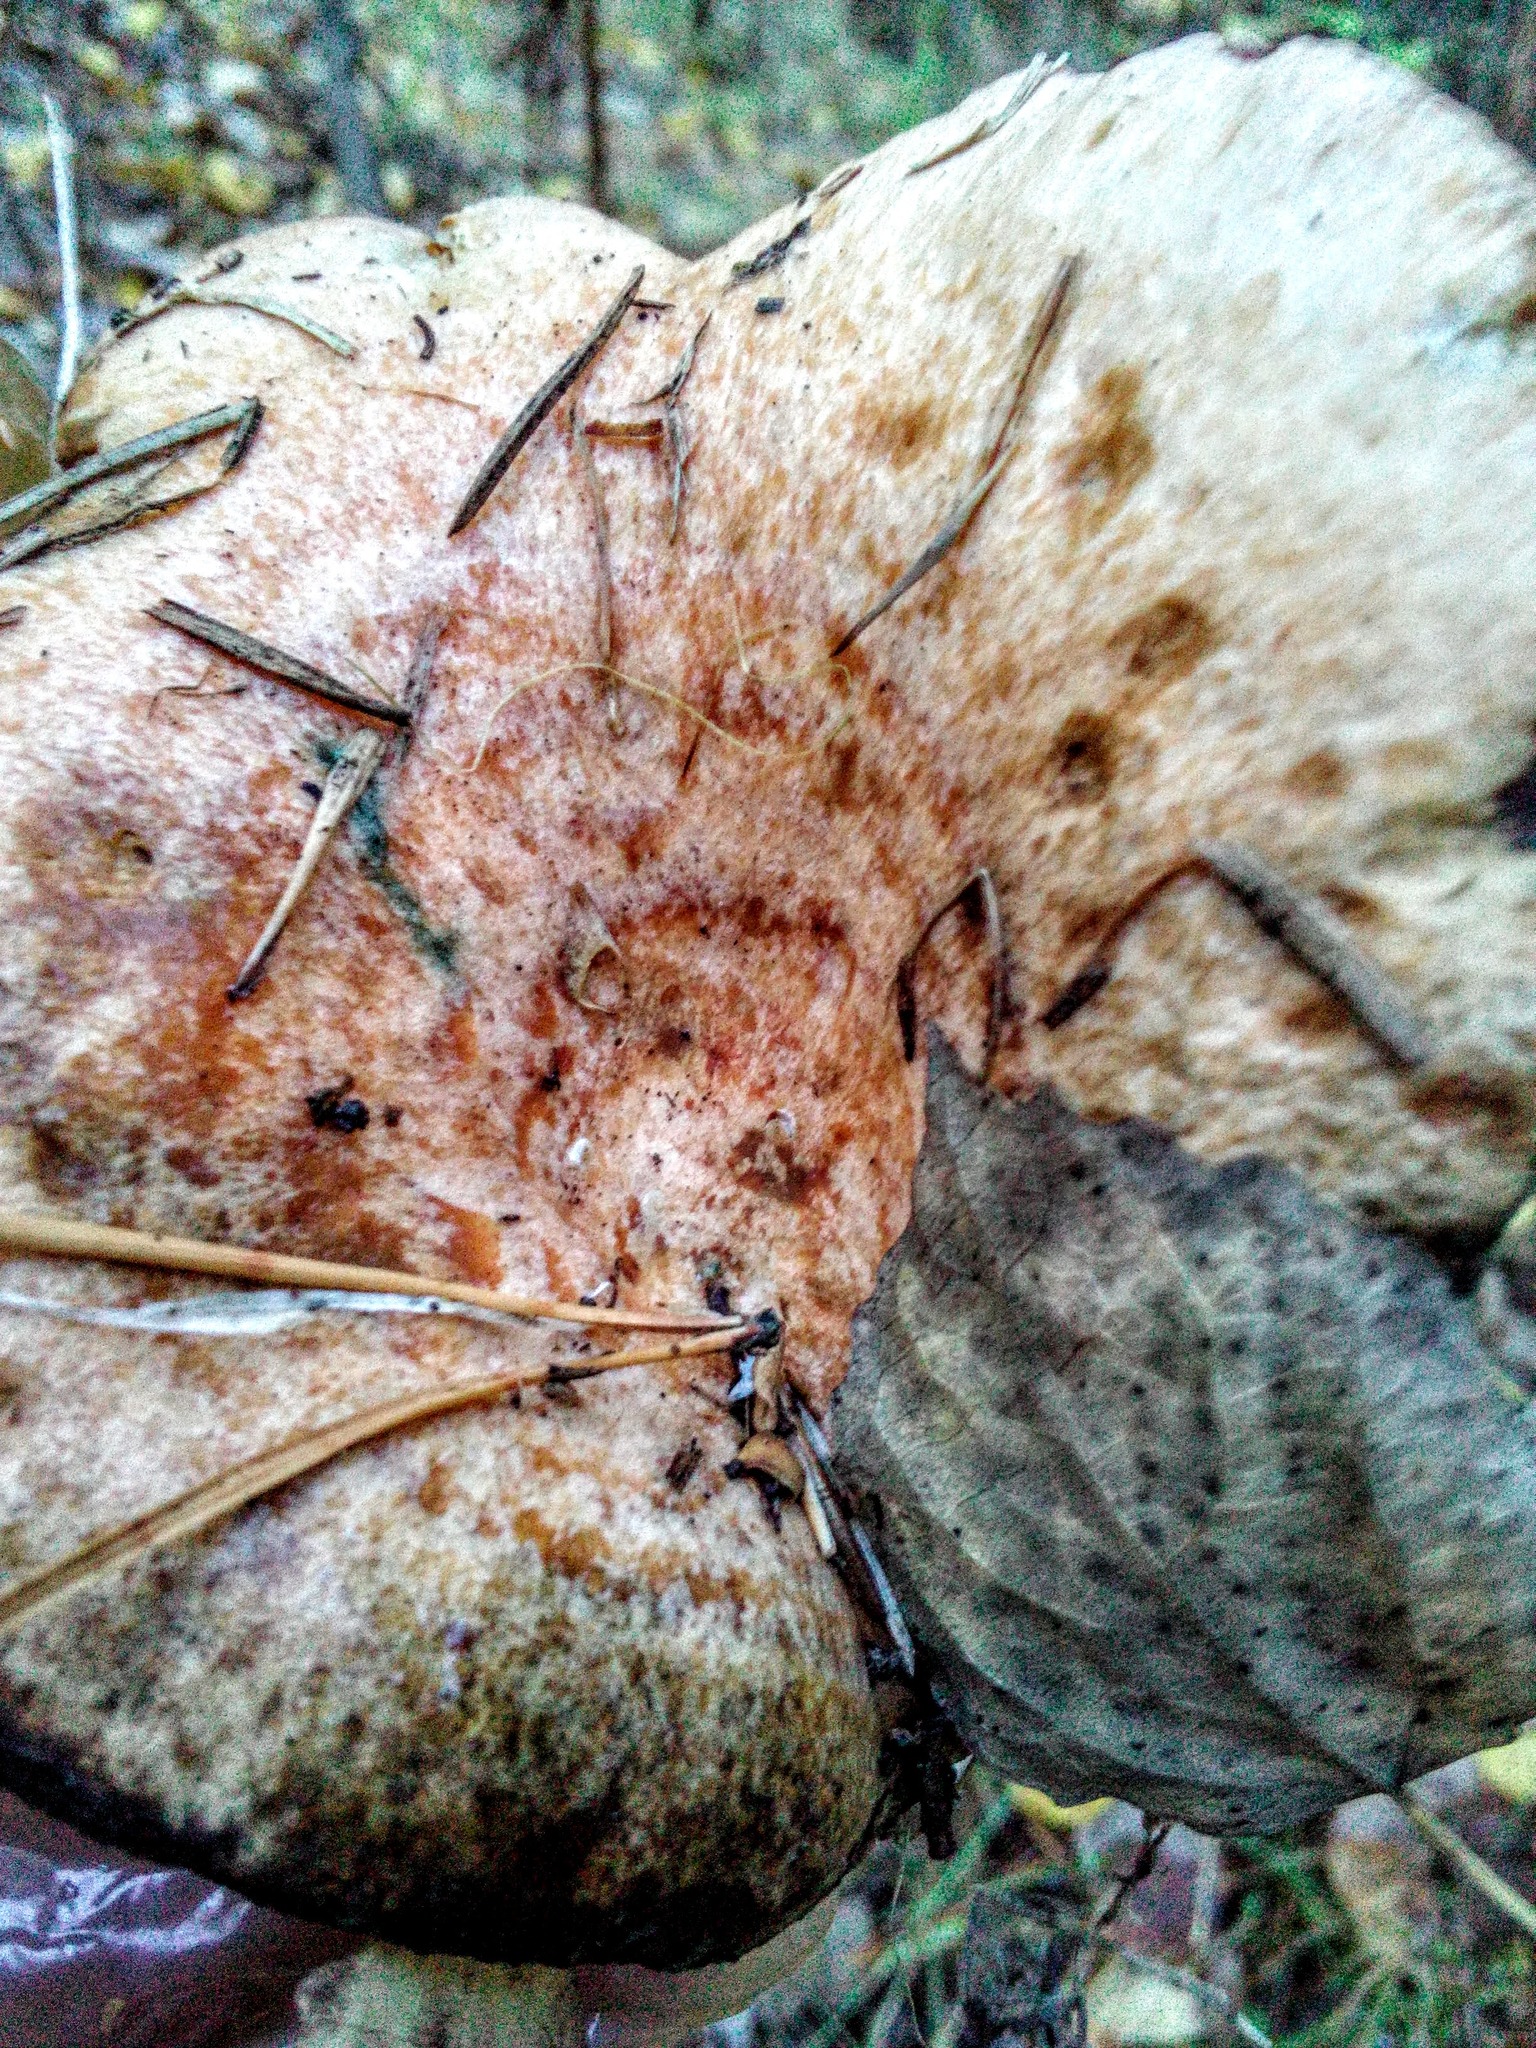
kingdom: Fungi
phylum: Basidiomycota
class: Agaricomycetes
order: Russulales
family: Russulaceae
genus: Lactarius
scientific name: Lactarius deterrimus
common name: False saffron milkcap
